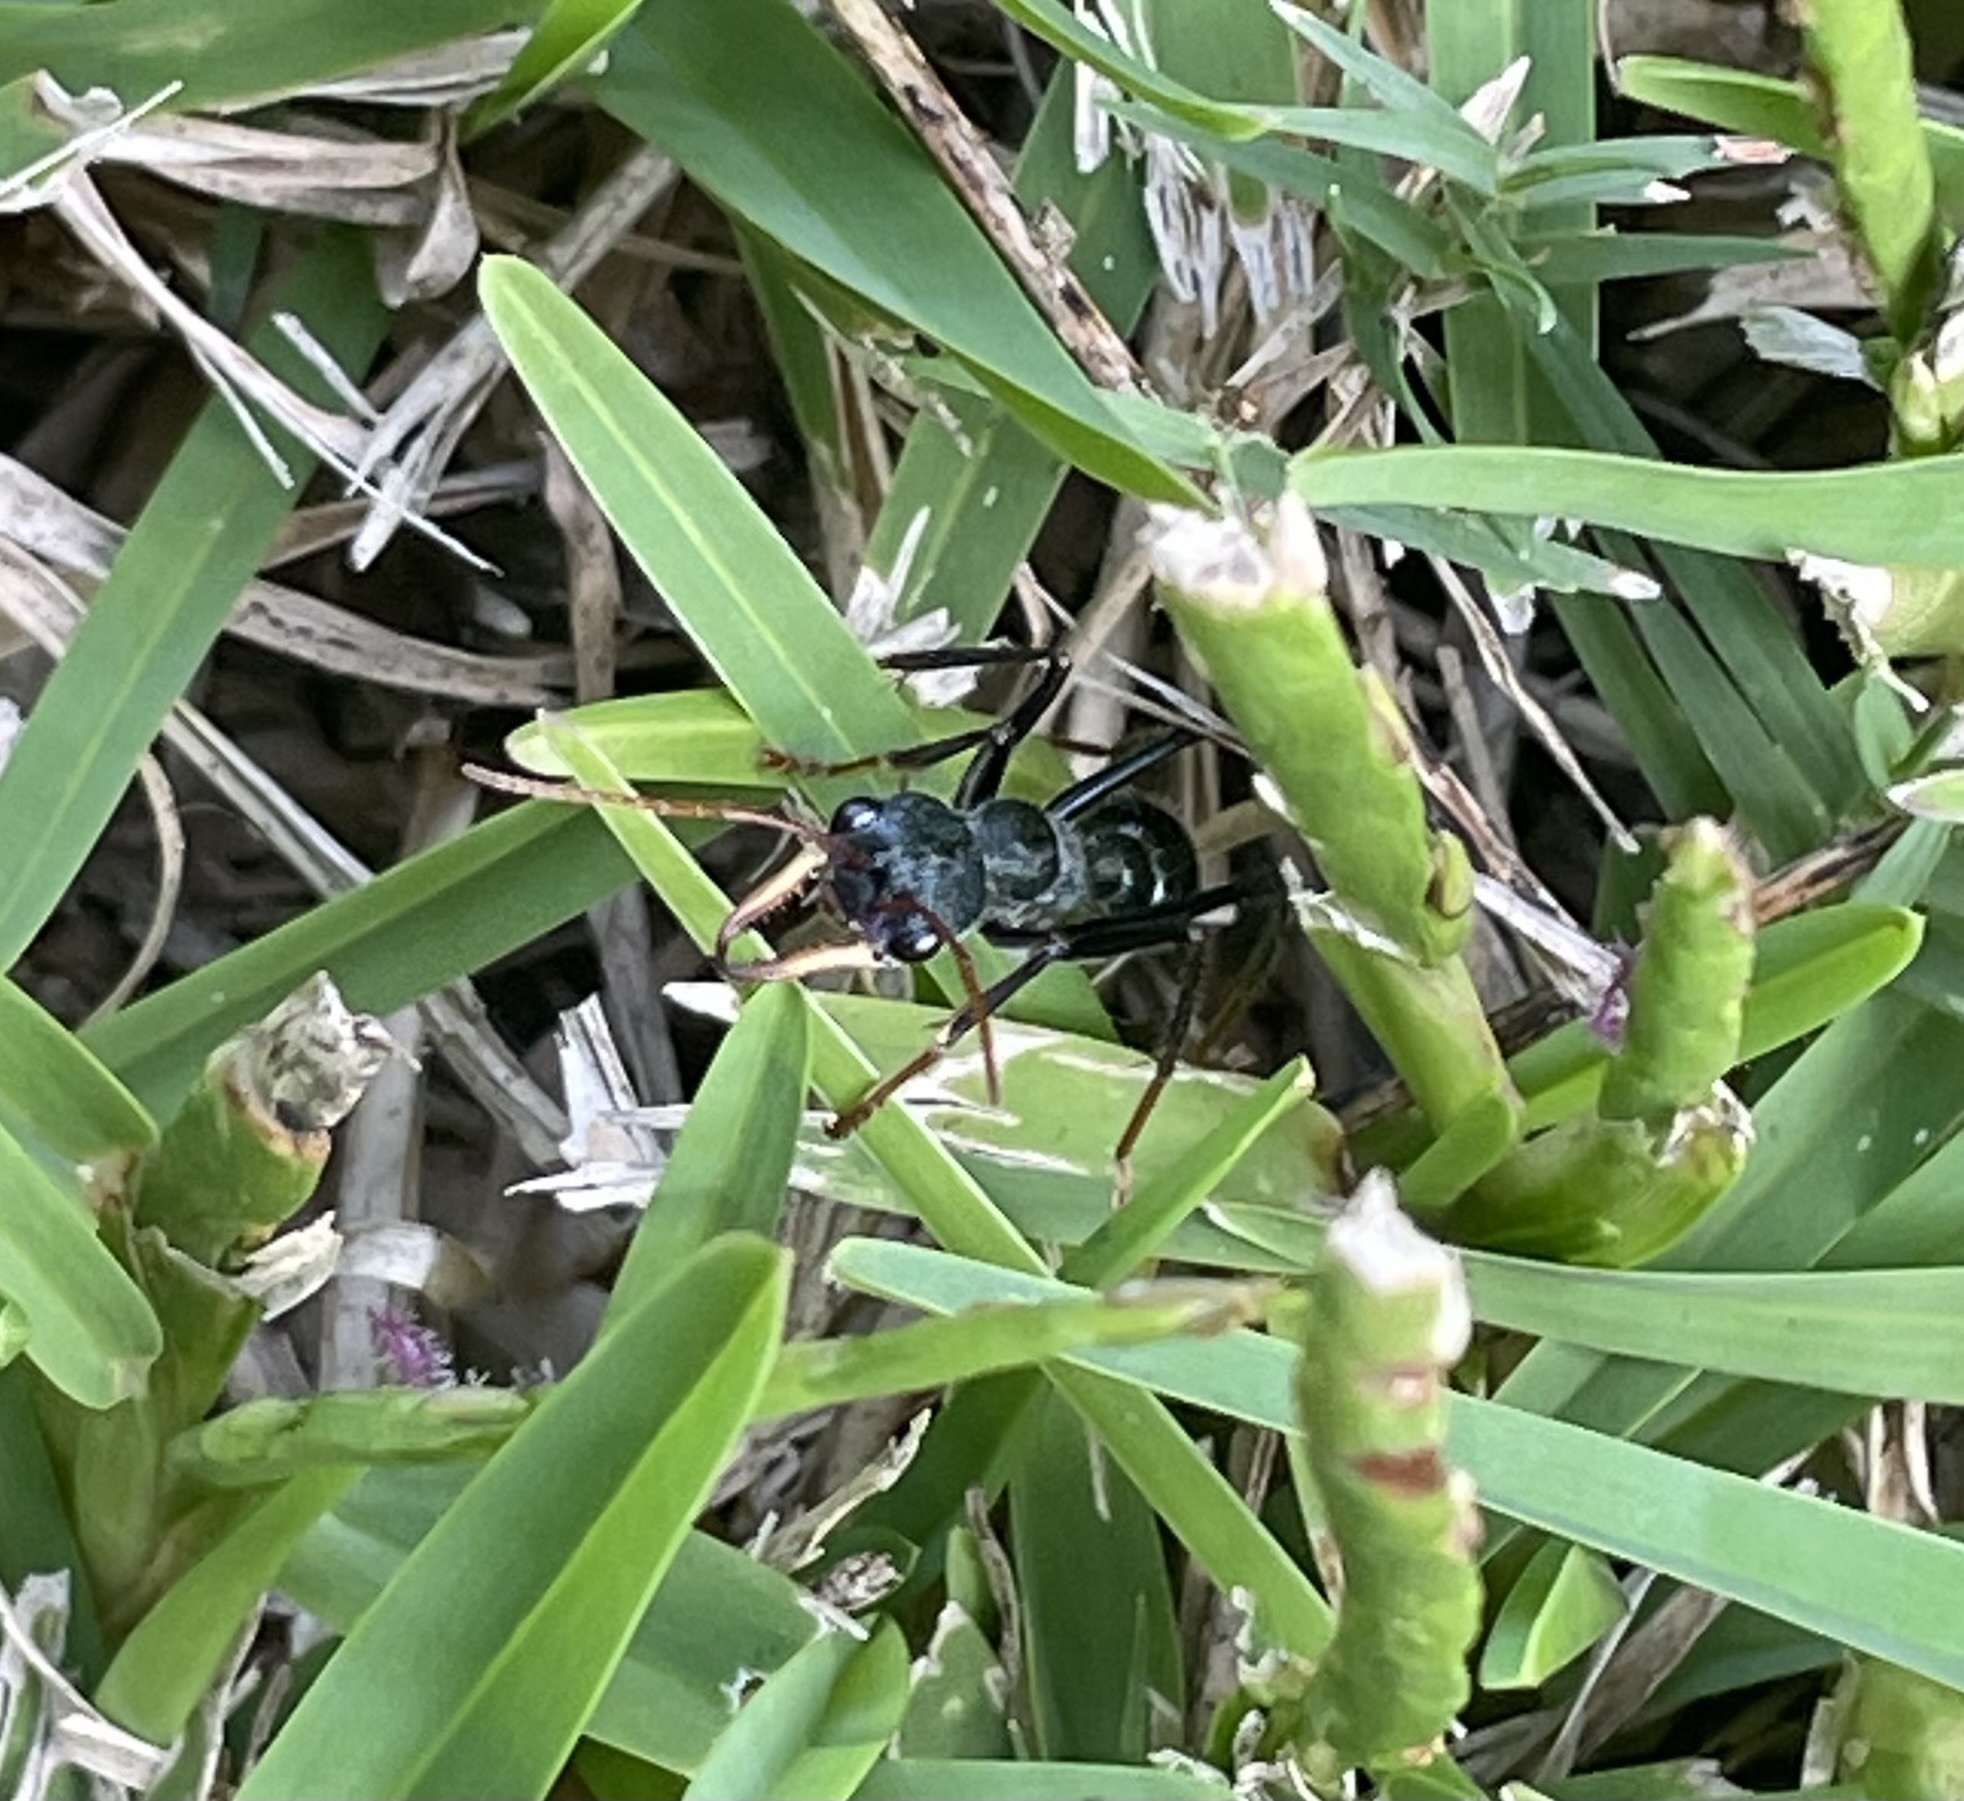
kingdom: Animalia
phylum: Arthropoda
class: Insecta
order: Hymenoptera
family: Formicidae
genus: Myrmecia
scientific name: Myrmecia tarsata
